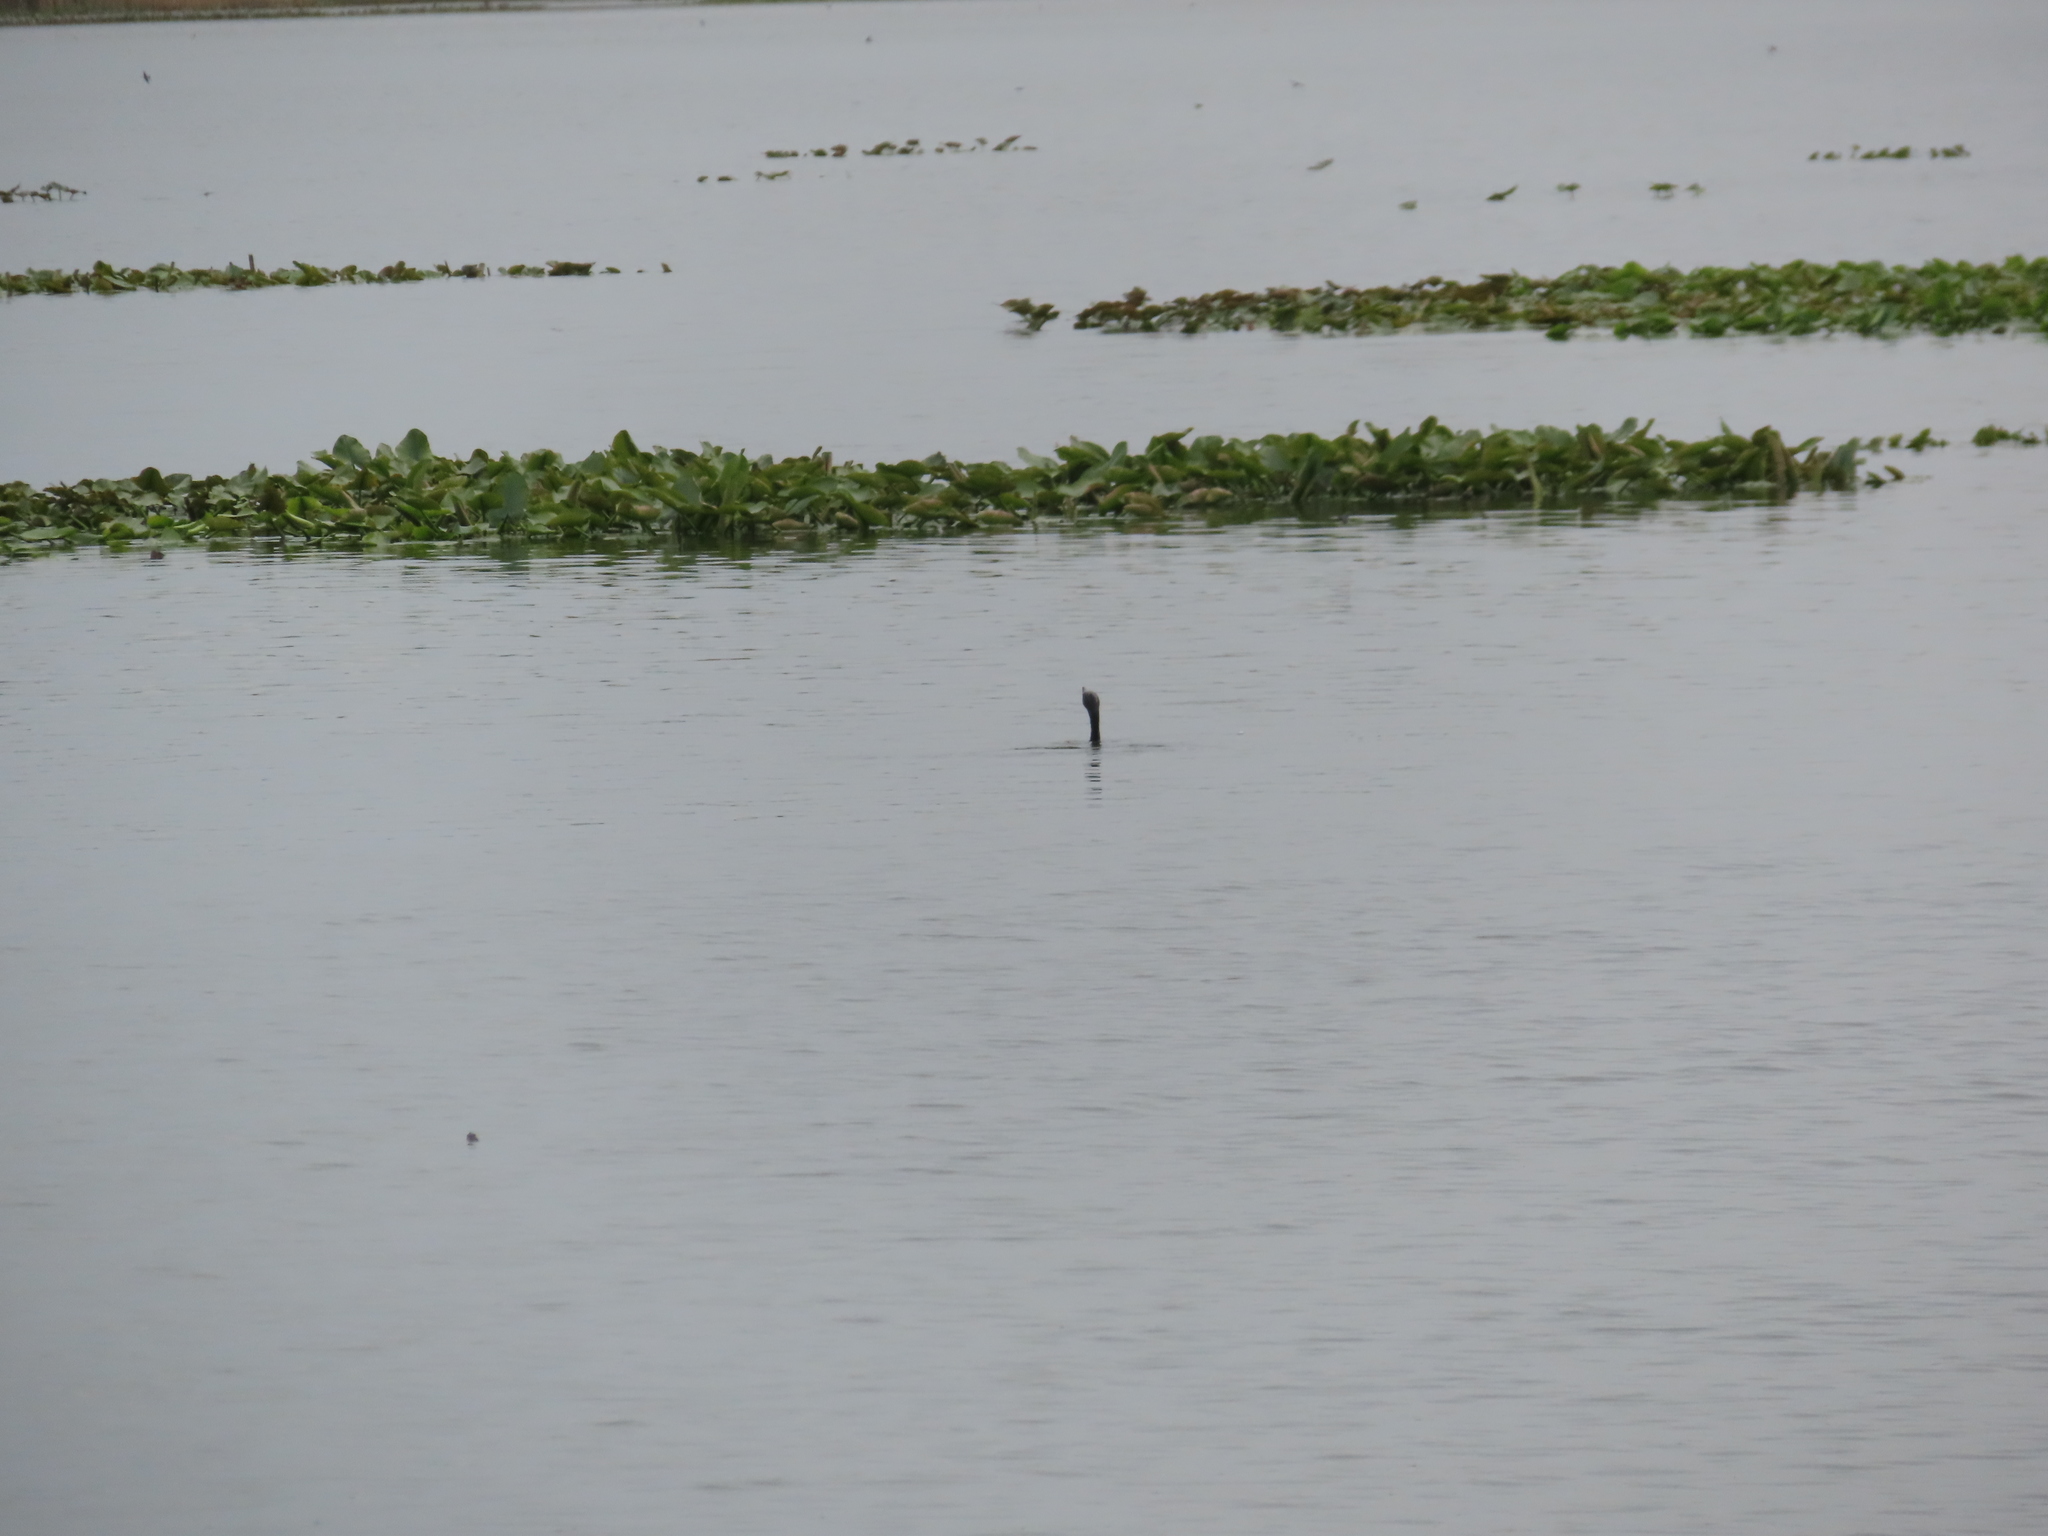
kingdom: Animalia
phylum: Chordata
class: Aves
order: Suliformes
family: Phalacrocoracidae
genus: Phalacrocorax
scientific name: Phalacrocorax auritus
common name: Double-crested cormorant
